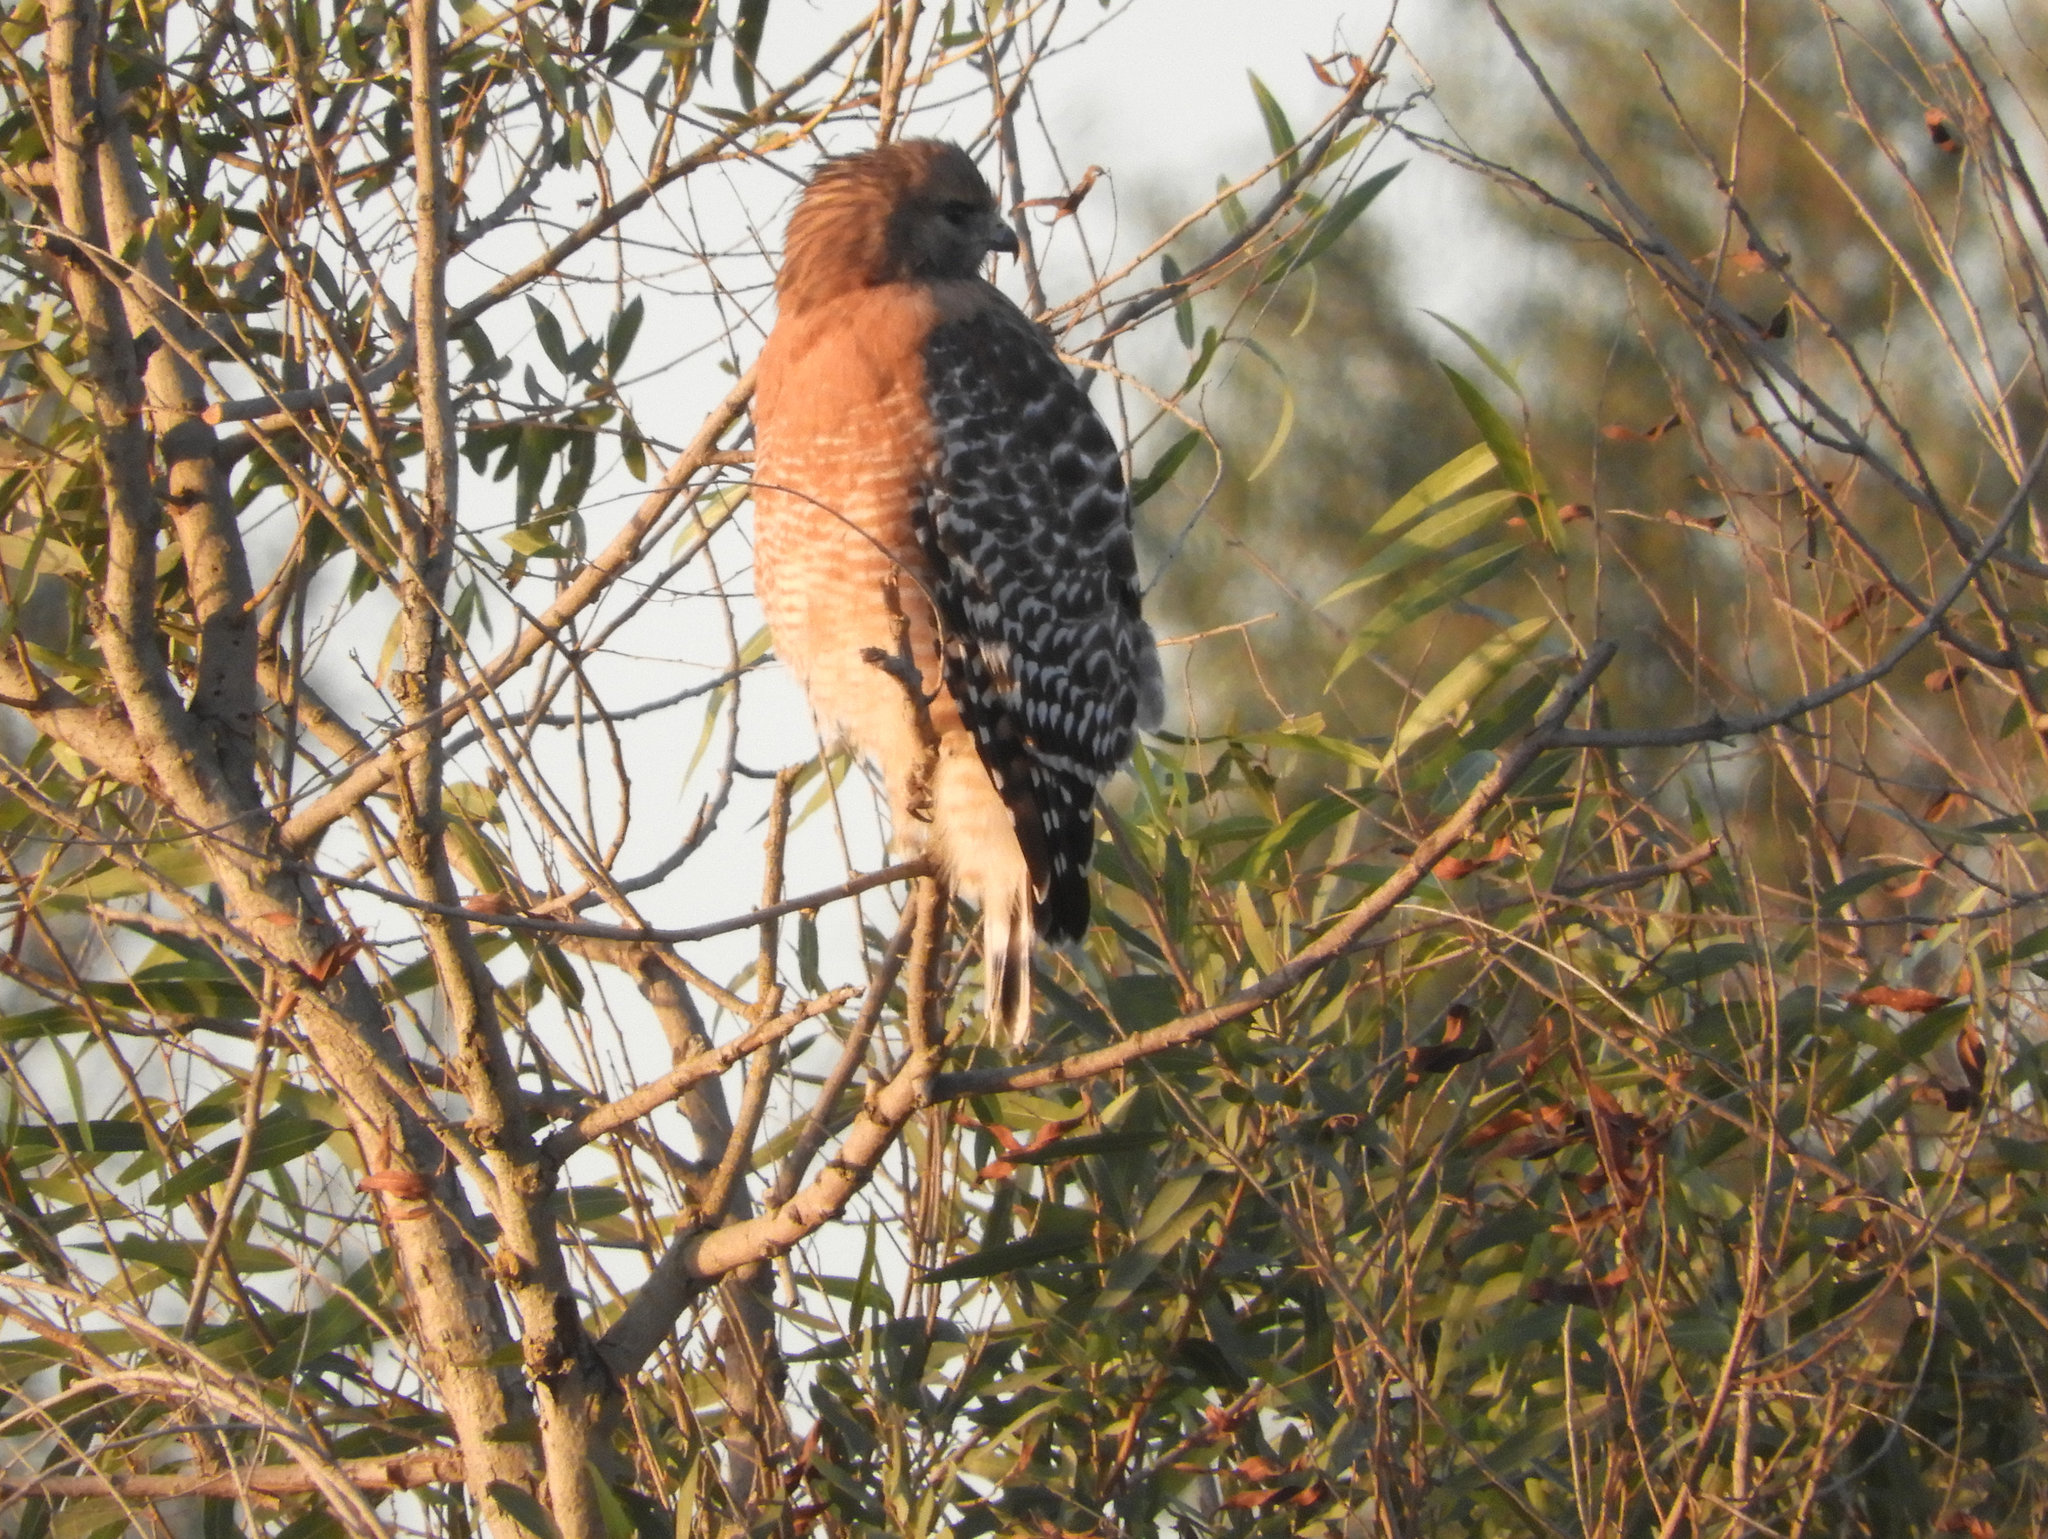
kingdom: Animalia
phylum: Chordata
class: Aves
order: Accipitriformes
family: Accipitridae
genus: Buteo
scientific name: Buteo lineatus
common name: Red-shouldered hawk
